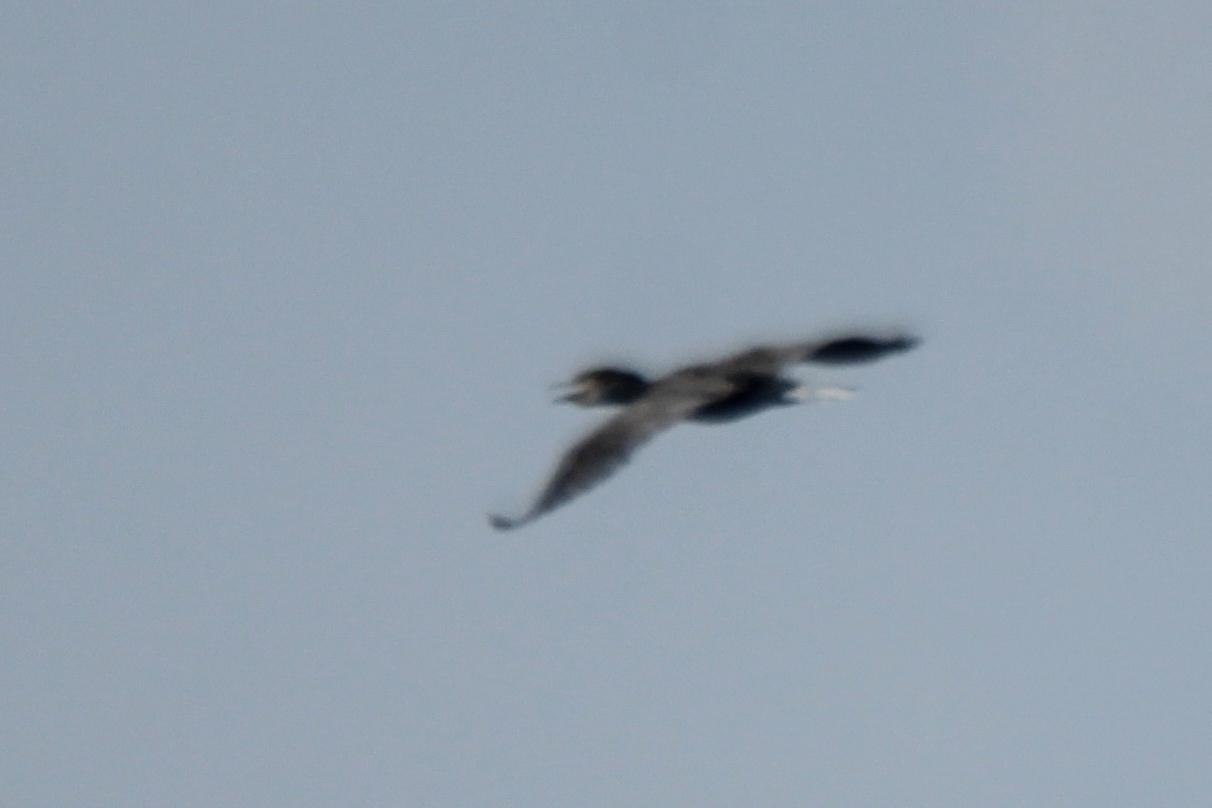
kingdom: Animalia
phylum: Chordata
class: Aves
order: Suliformes
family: Phalacrocoracidae
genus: Phalacrocorax
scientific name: Phalacrocorax carbo
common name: Great cormorant
